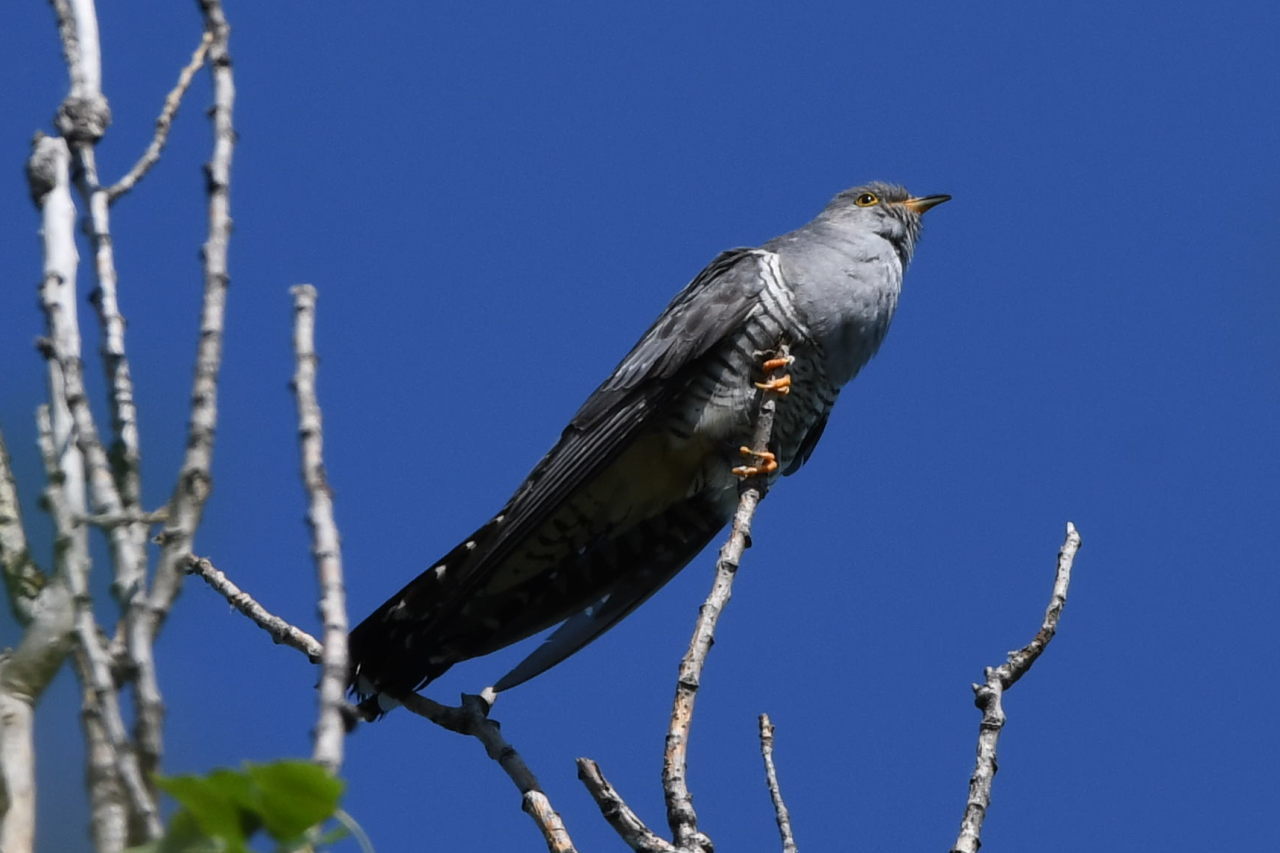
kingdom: Animalia
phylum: Chordata
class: Aves
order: Cuculiformes
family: Cuculidae
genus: Cuculus
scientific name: Cuculus canorus
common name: Common cuckoo
